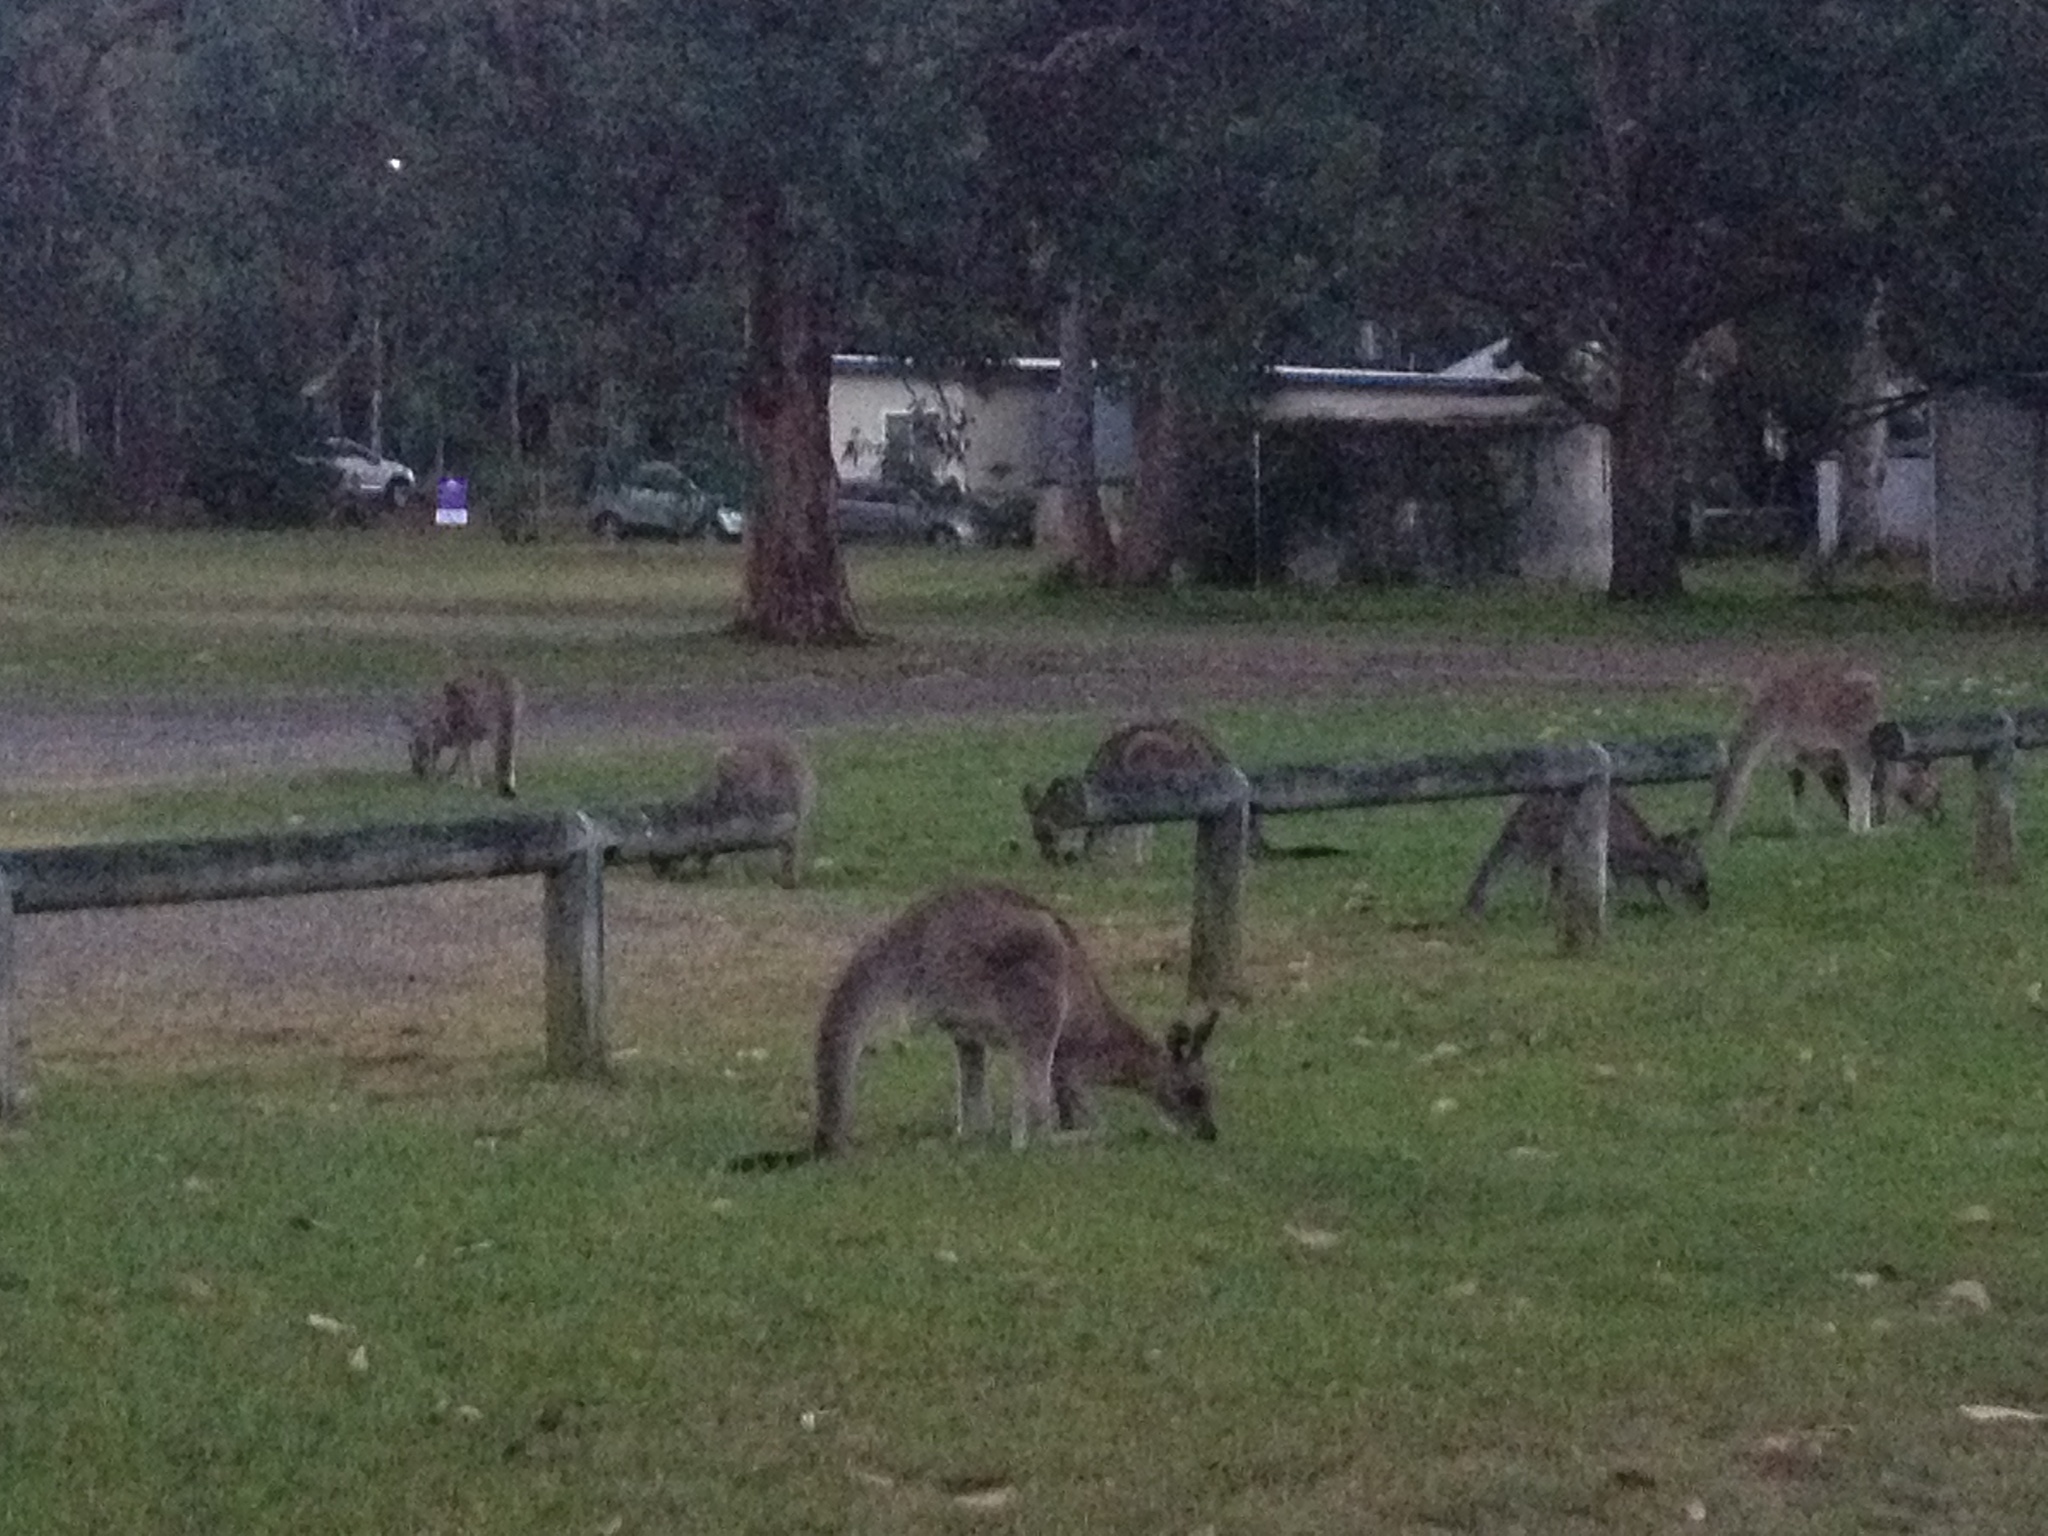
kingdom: Animalia
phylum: Chordata
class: Mammalia
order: Diprotodontia
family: Macropodidae
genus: Macropus
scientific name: Macropus giganteus
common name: Eastern grey kangaroo
